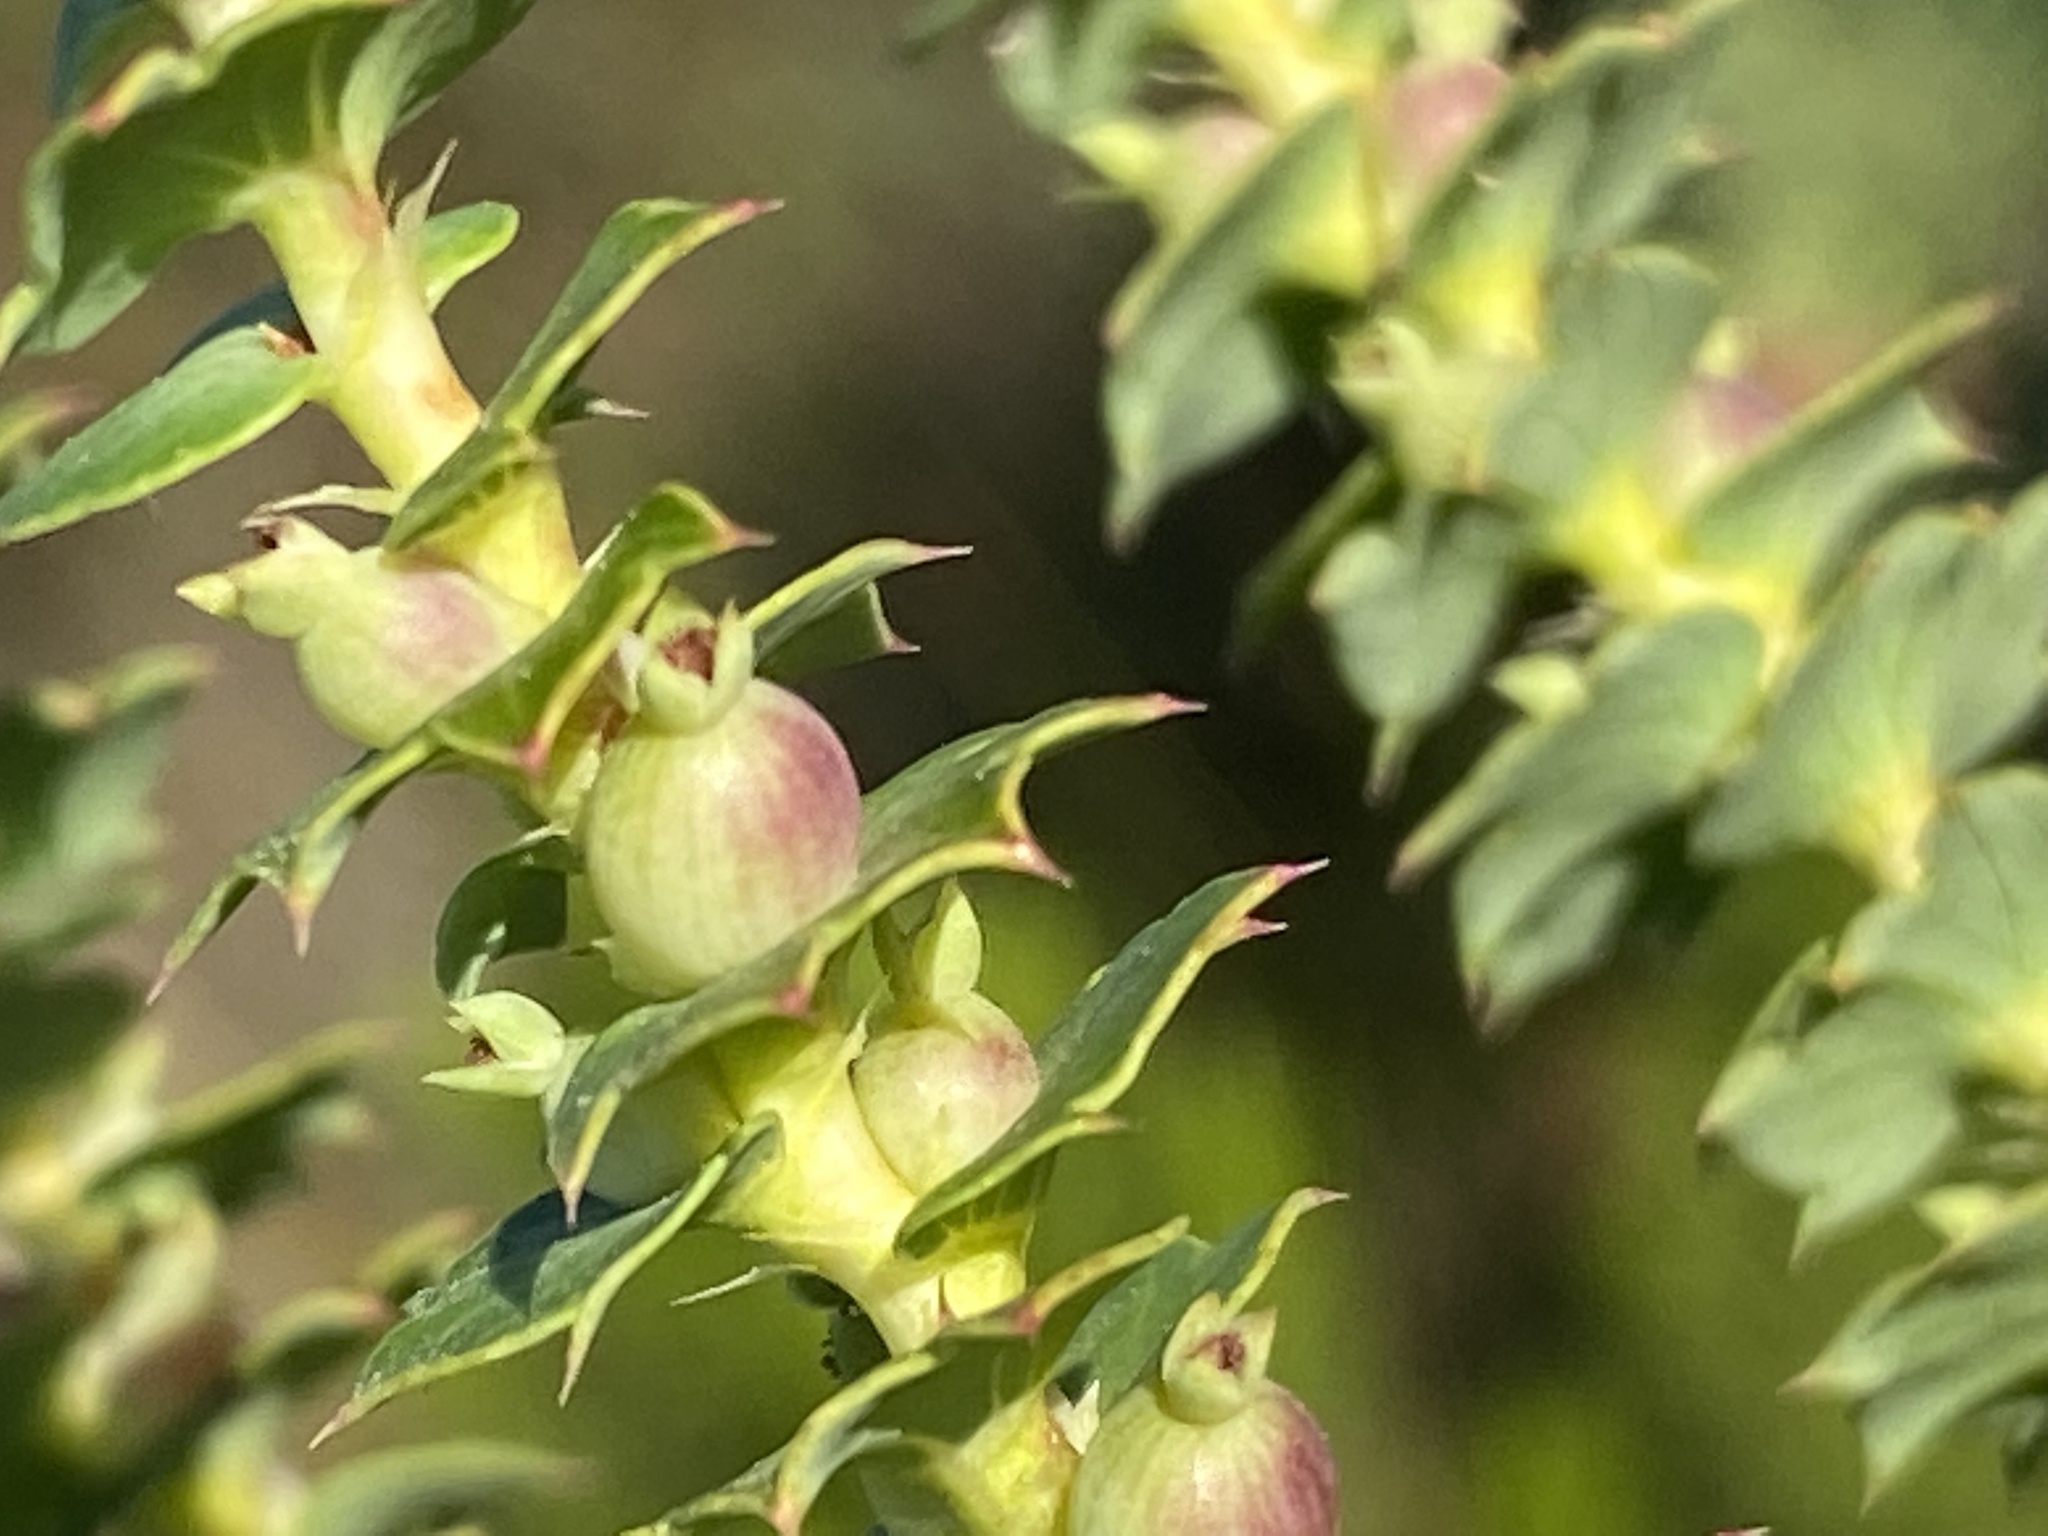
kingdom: Plantae
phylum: Tracheophyta
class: Magnoliopsida
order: Rosales
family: Rosaceae
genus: Cliffortia
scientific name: Cliffortia schlechteri
